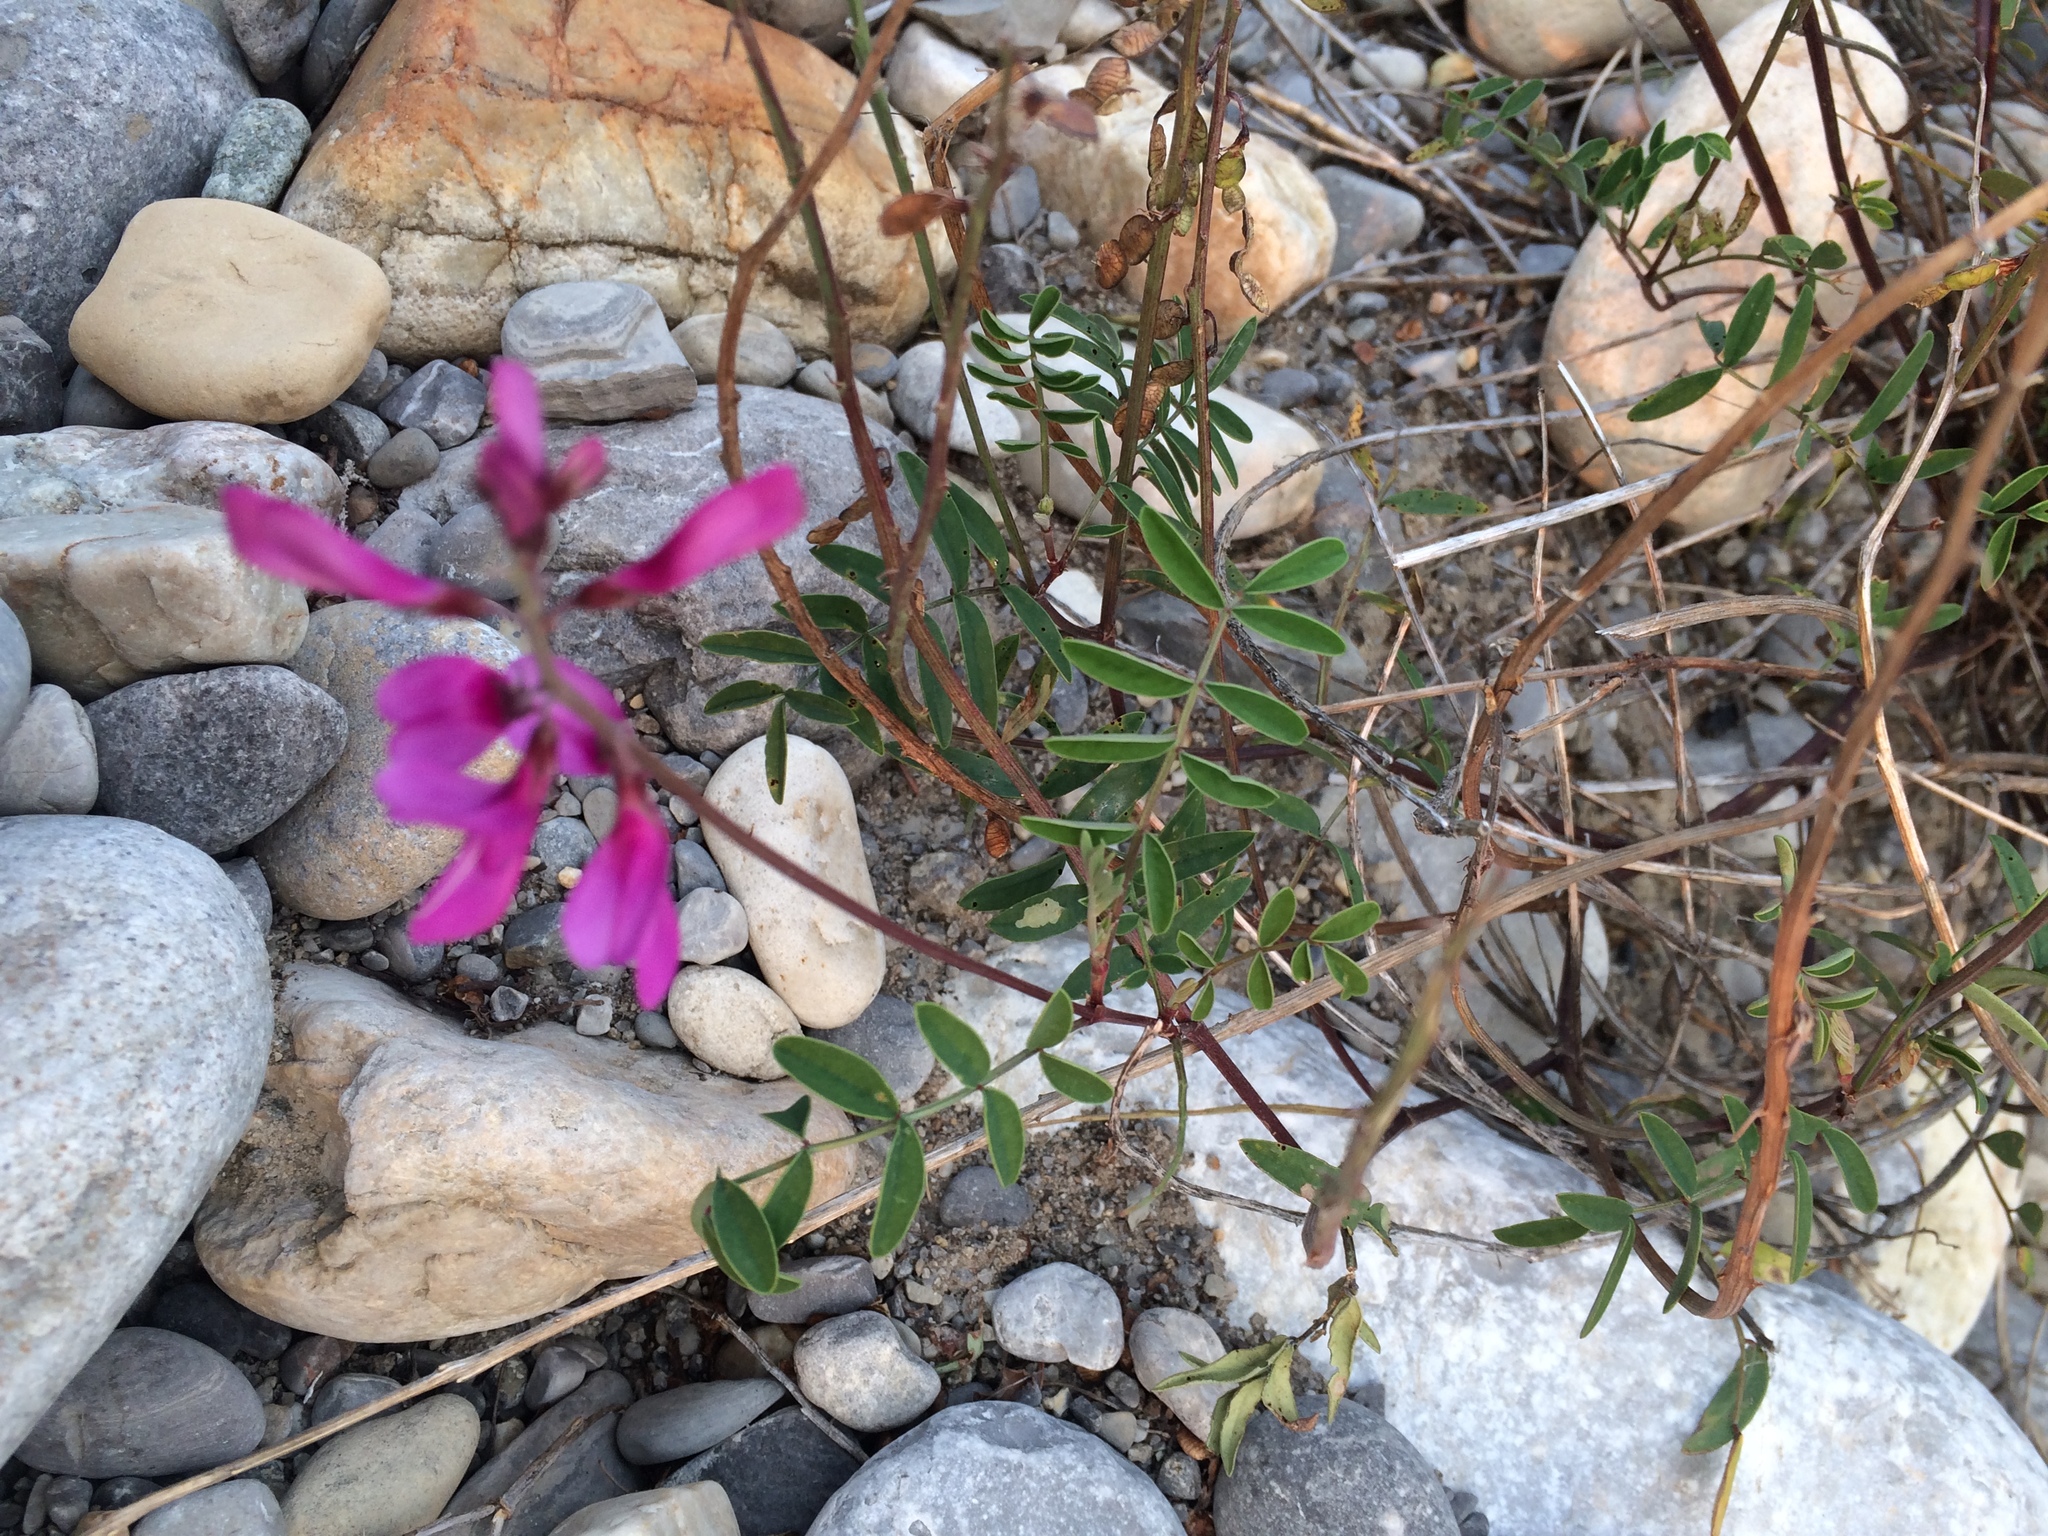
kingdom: Plantae
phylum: Tracheophyta
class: Magnoliopsida
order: Fabales
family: Fabaceae
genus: Hedysarum
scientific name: Hedysarum boreale
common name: Northern sweet-vetch
